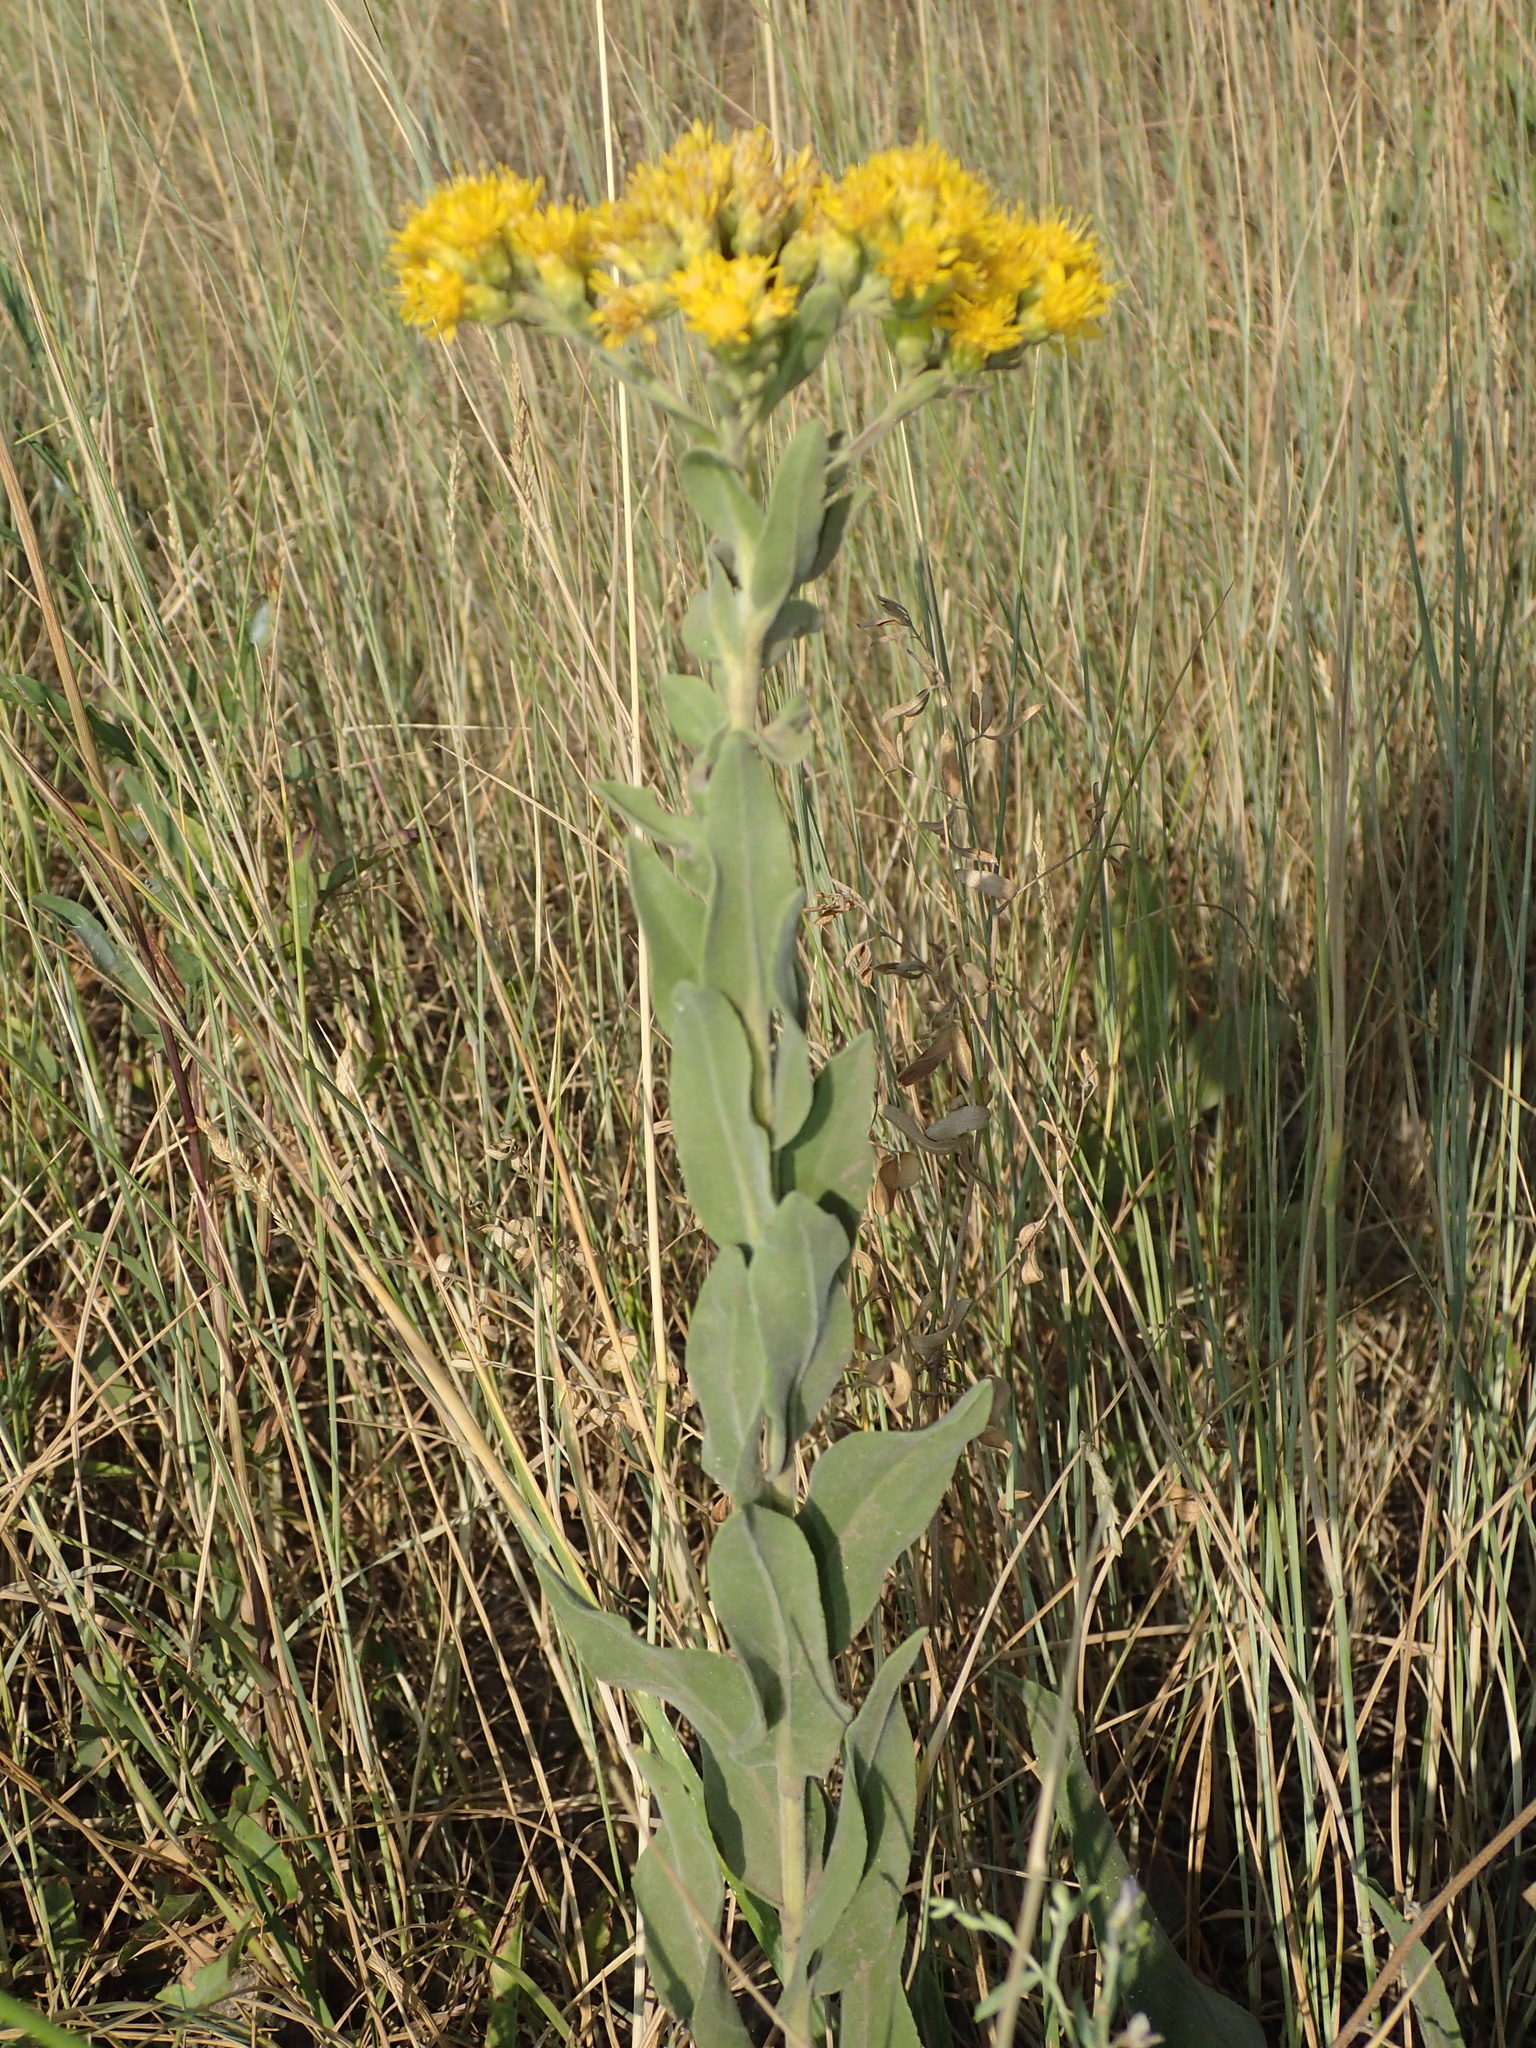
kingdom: Plantae
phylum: Tracheophyta
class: Magnoliopsida
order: Asterales
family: Asteraceae
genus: Solidago
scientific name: Solidago rigida
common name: Rigid goldenrod
